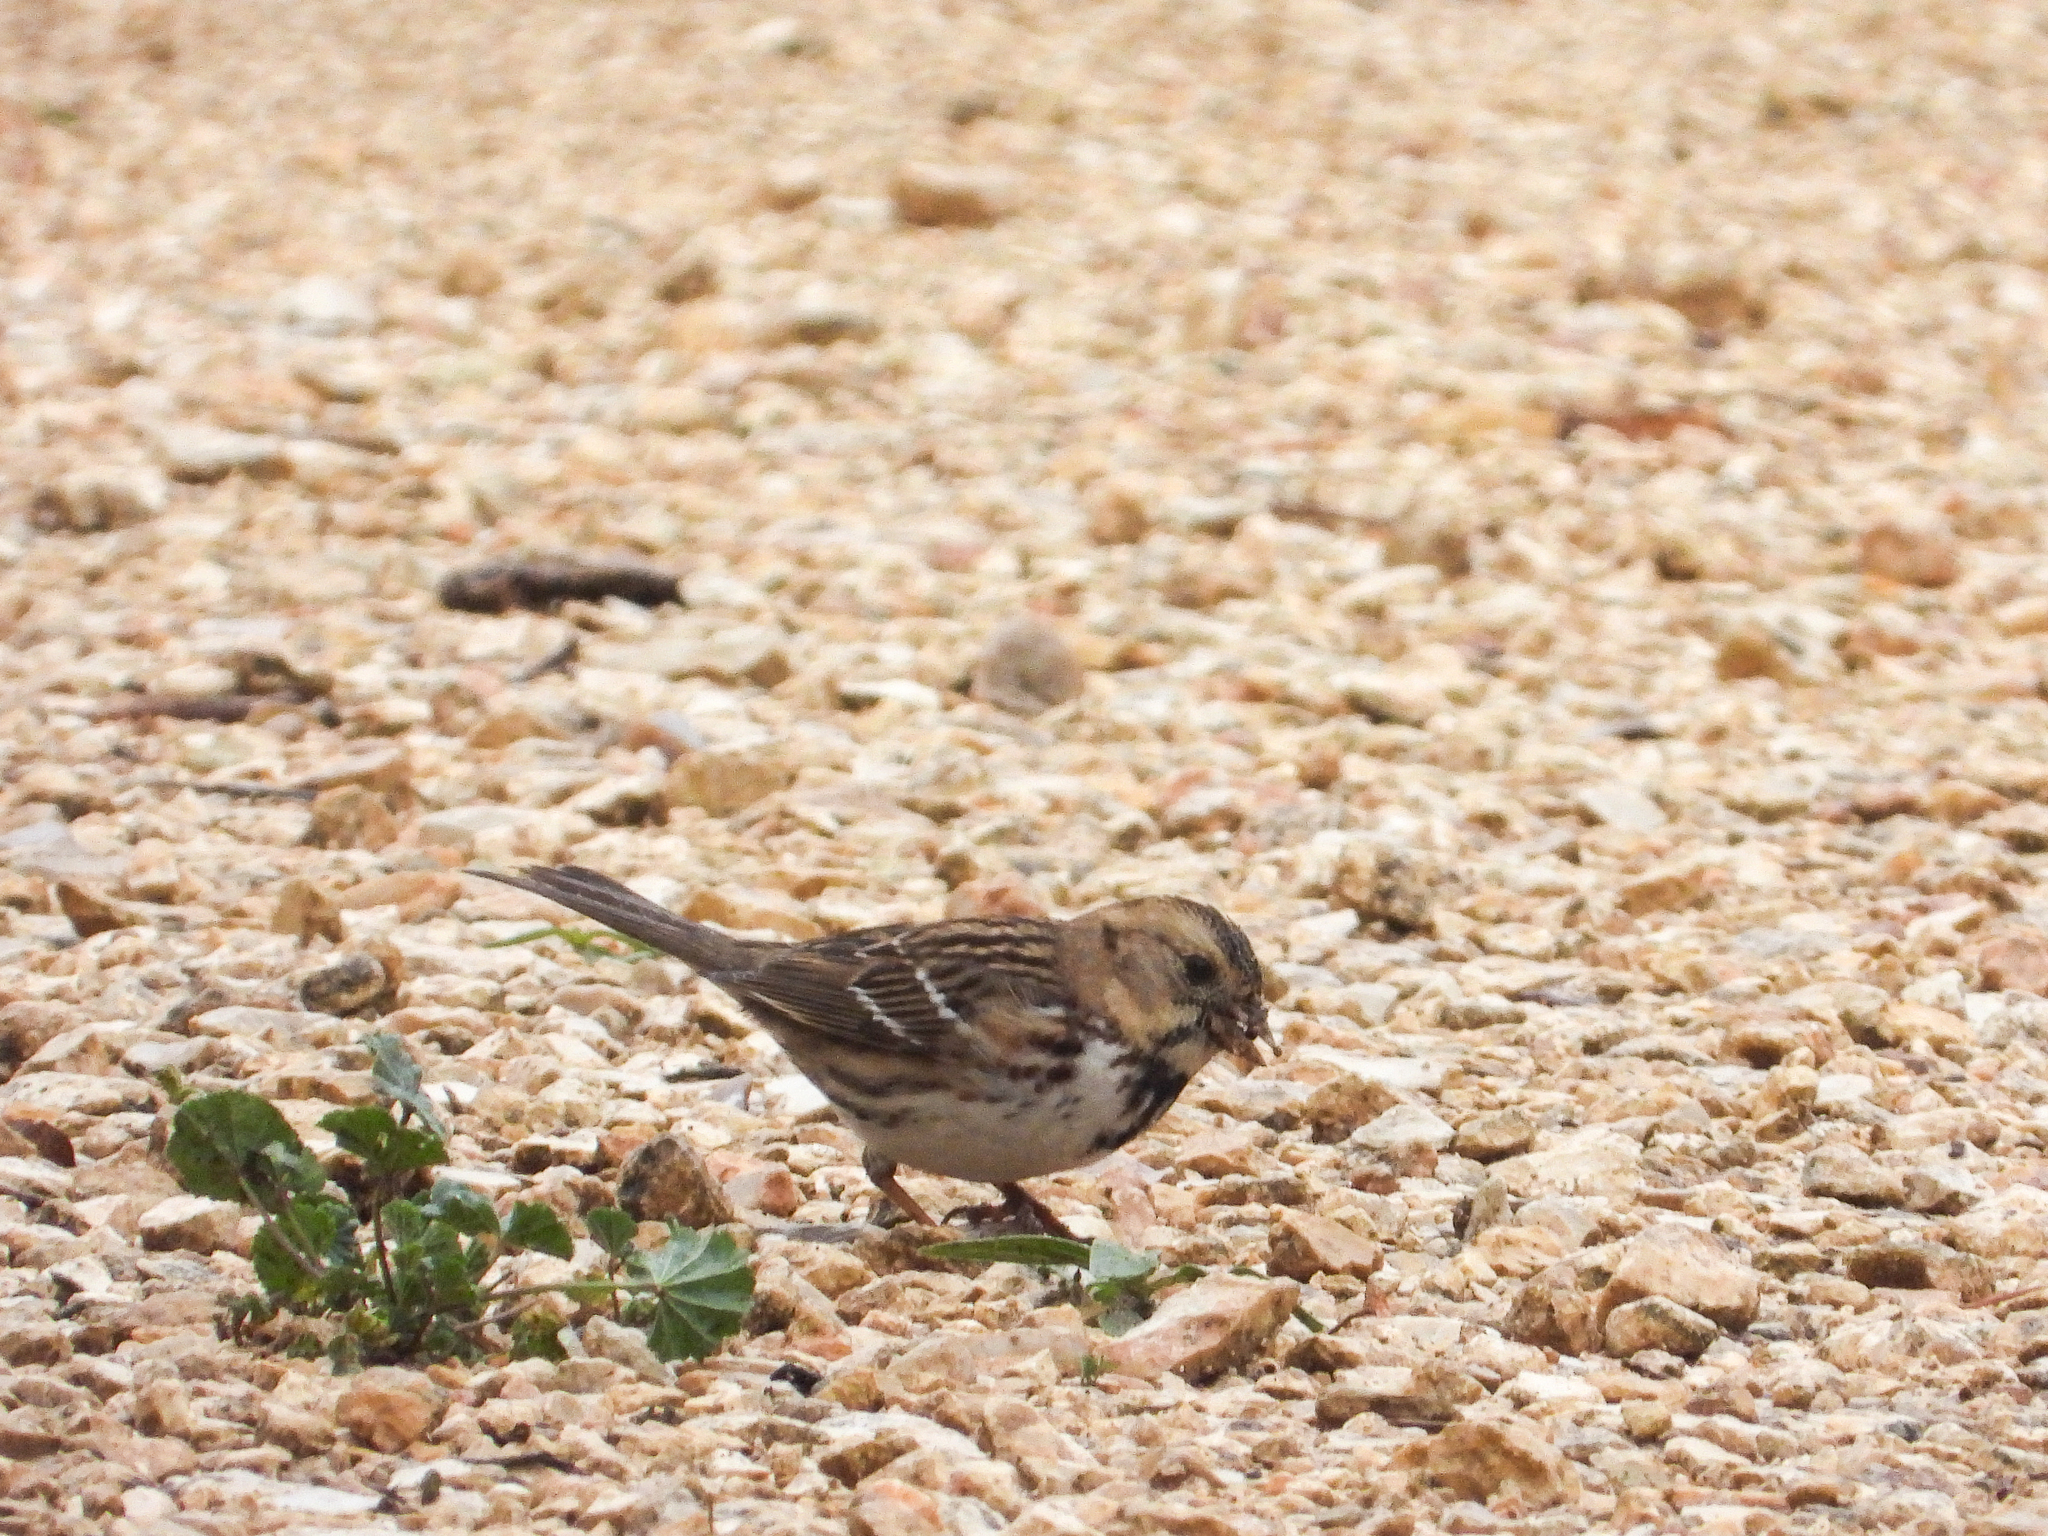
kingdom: Animalia
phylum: Chordata
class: Aves
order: Passeriformes
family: Passerellidae
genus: Zonotrichia
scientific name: Zonotrichia querula
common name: Harris's sparrow
